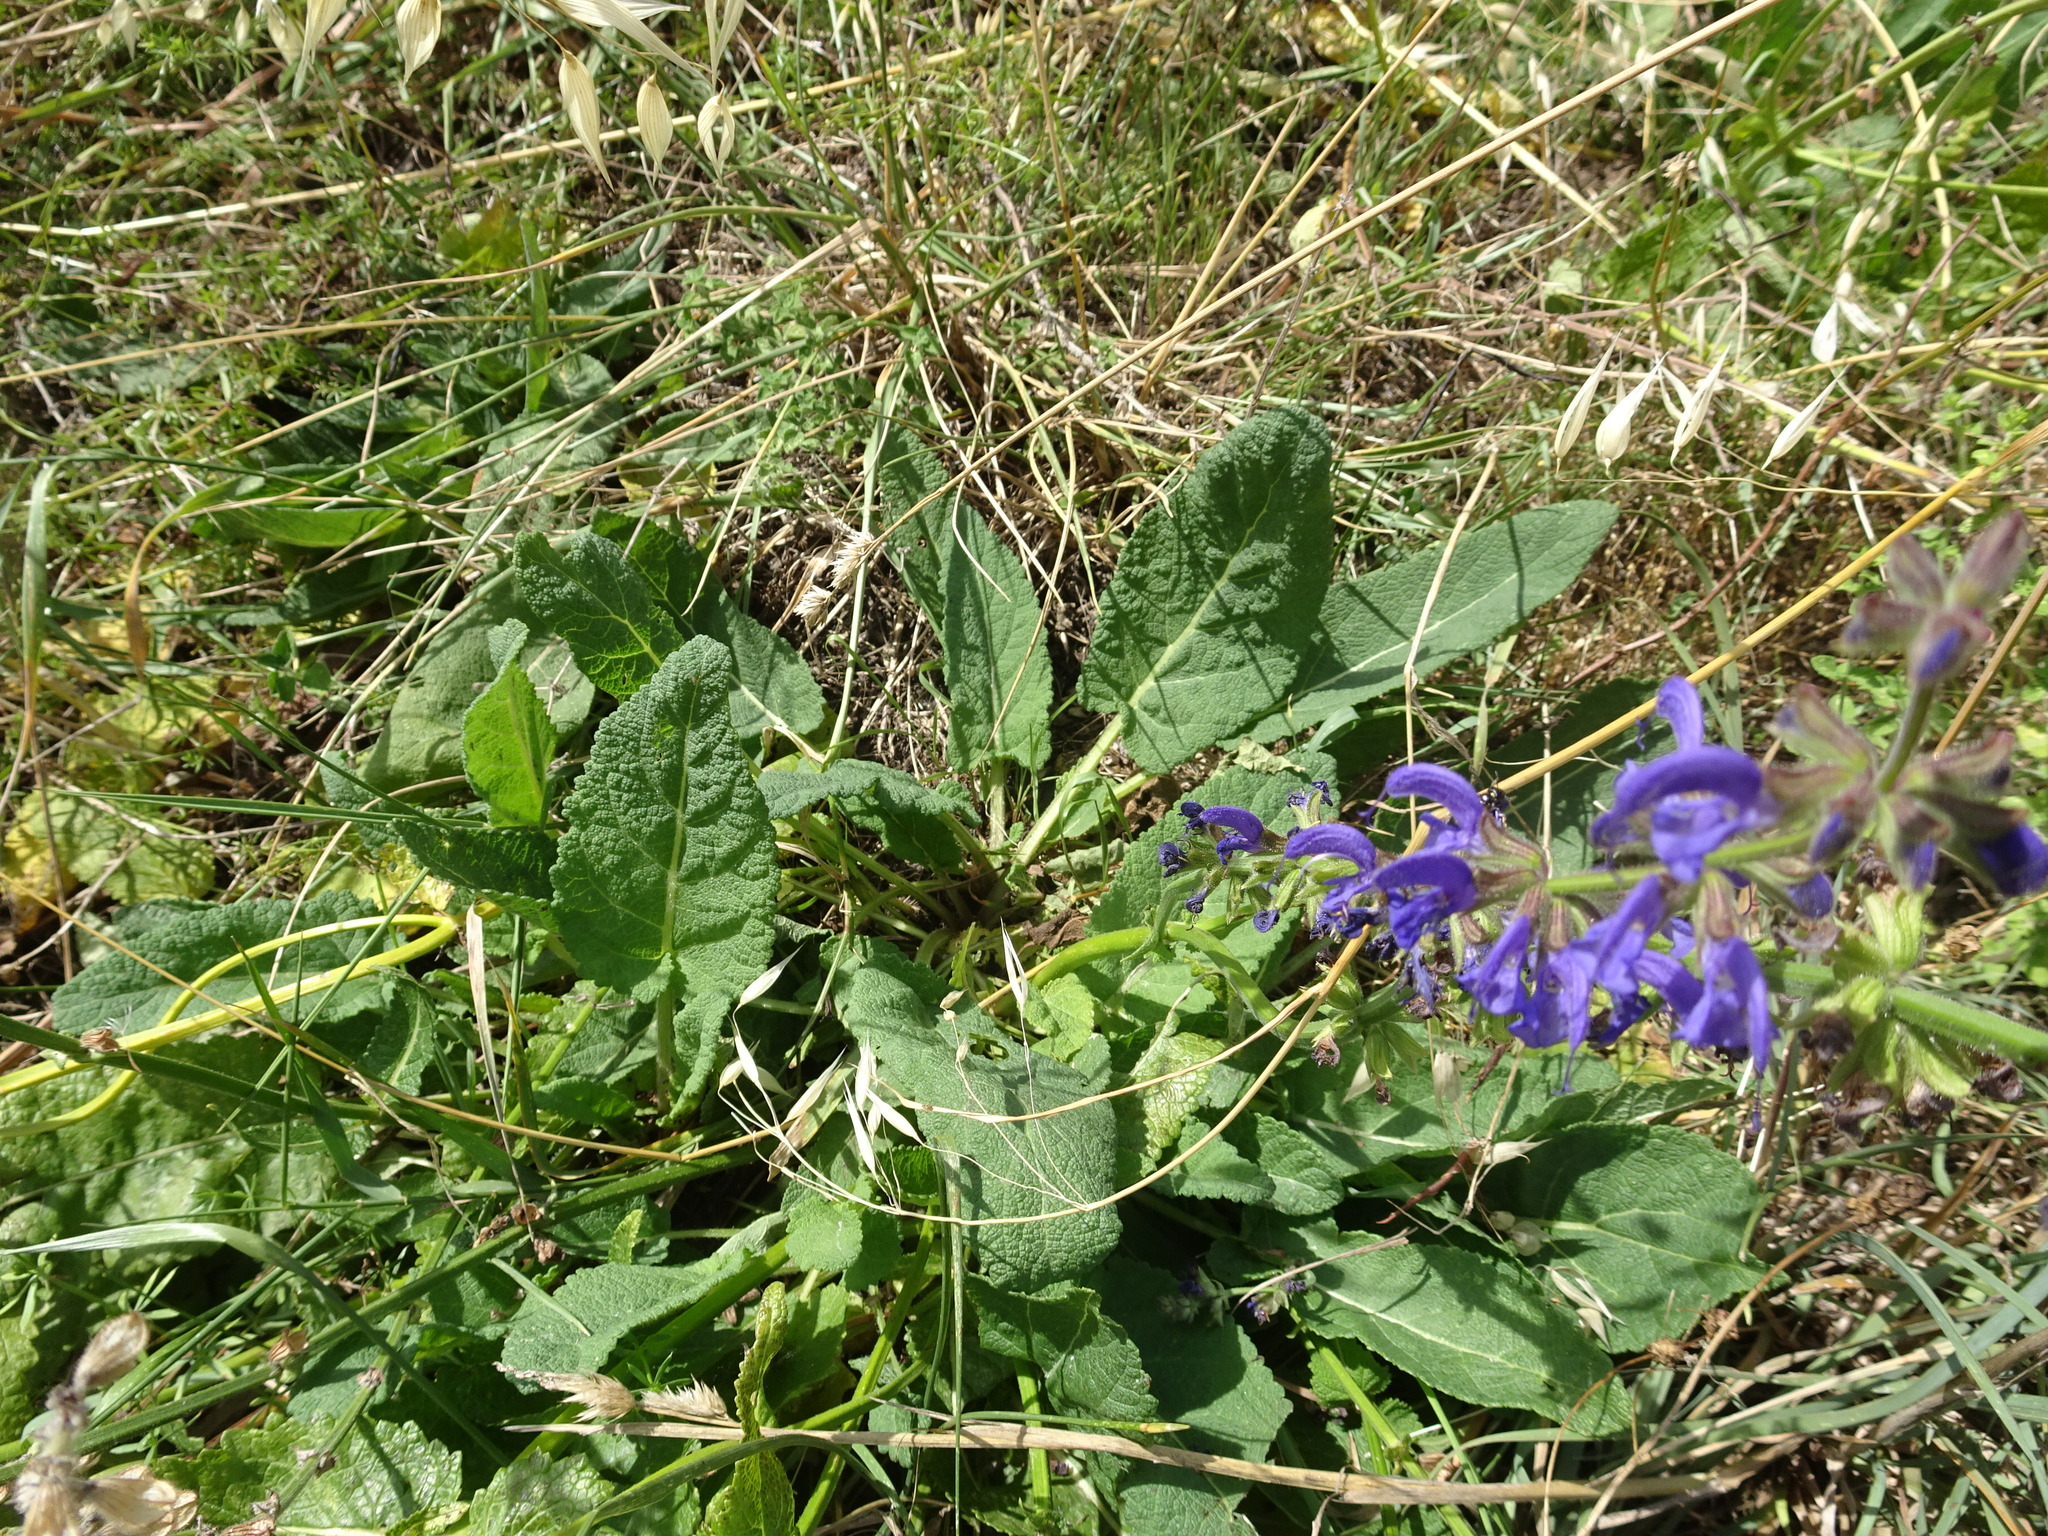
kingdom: Plantae
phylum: Tracheophyta
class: Magnoliopsida
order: Lamiales
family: Lamiaceae
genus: Salvia
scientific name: Salvia pratensis
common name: Meadow sage
